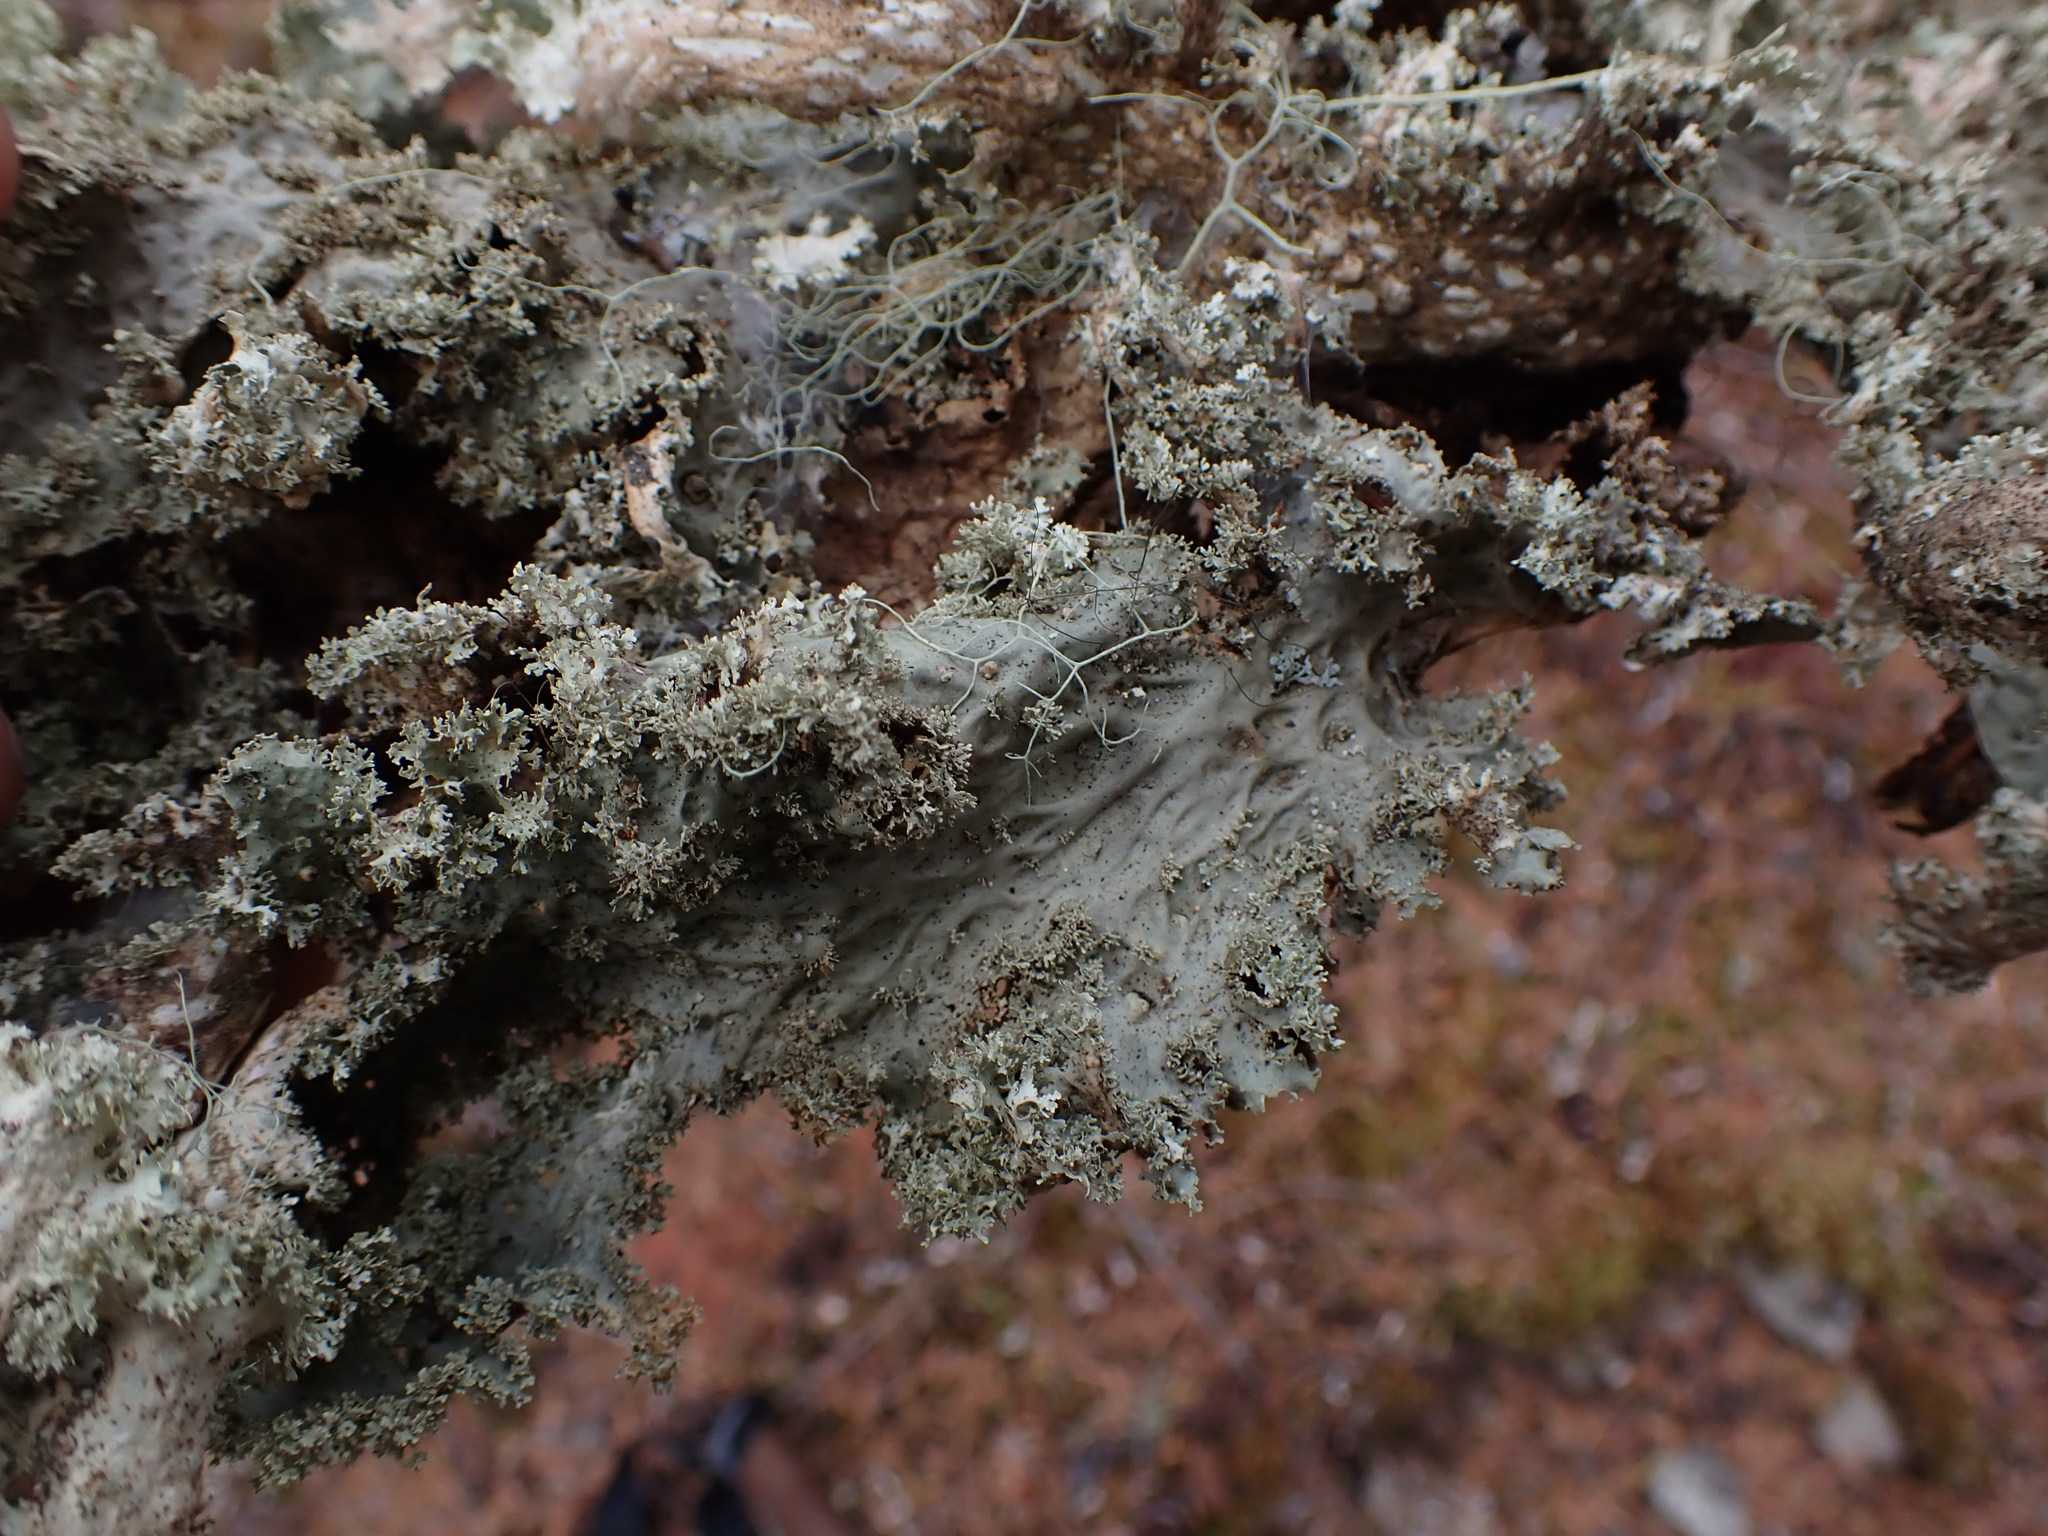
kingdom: Fungi
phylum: Ascomycota
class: Lecanoromycetes
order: Peltigerales
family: Lobariaceae
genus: Lobaria
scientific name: Lobaria oregana
